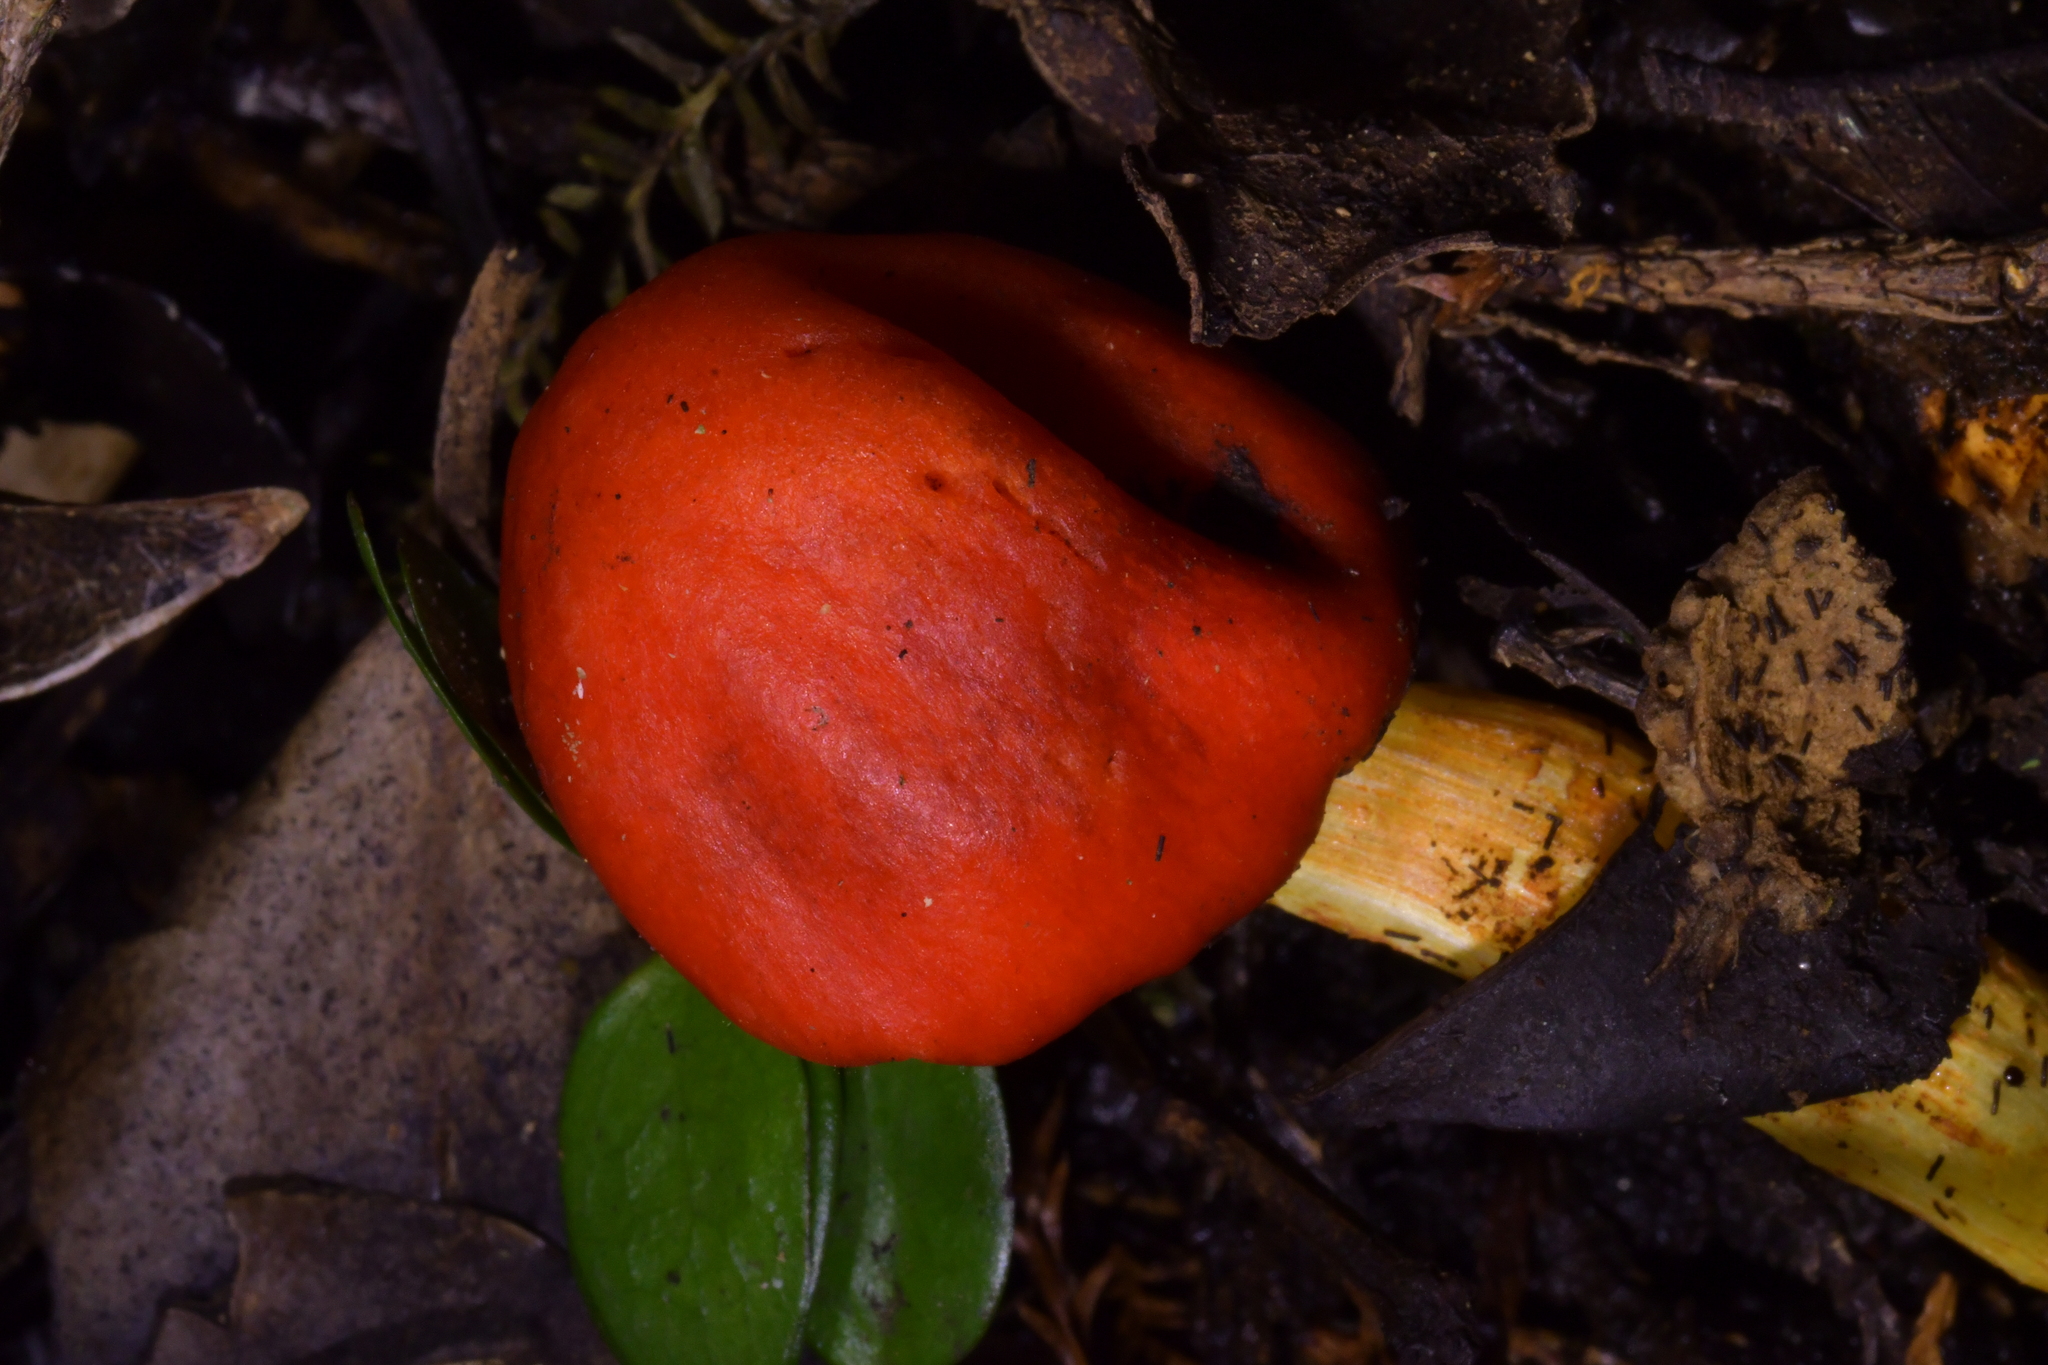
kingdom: Fungi
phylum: Basidiomycota
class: Agaricomycetes
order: Agaricales
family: Strophariaceae
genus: Leratiomyces
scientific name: Leratiomyces erythrocephalus
